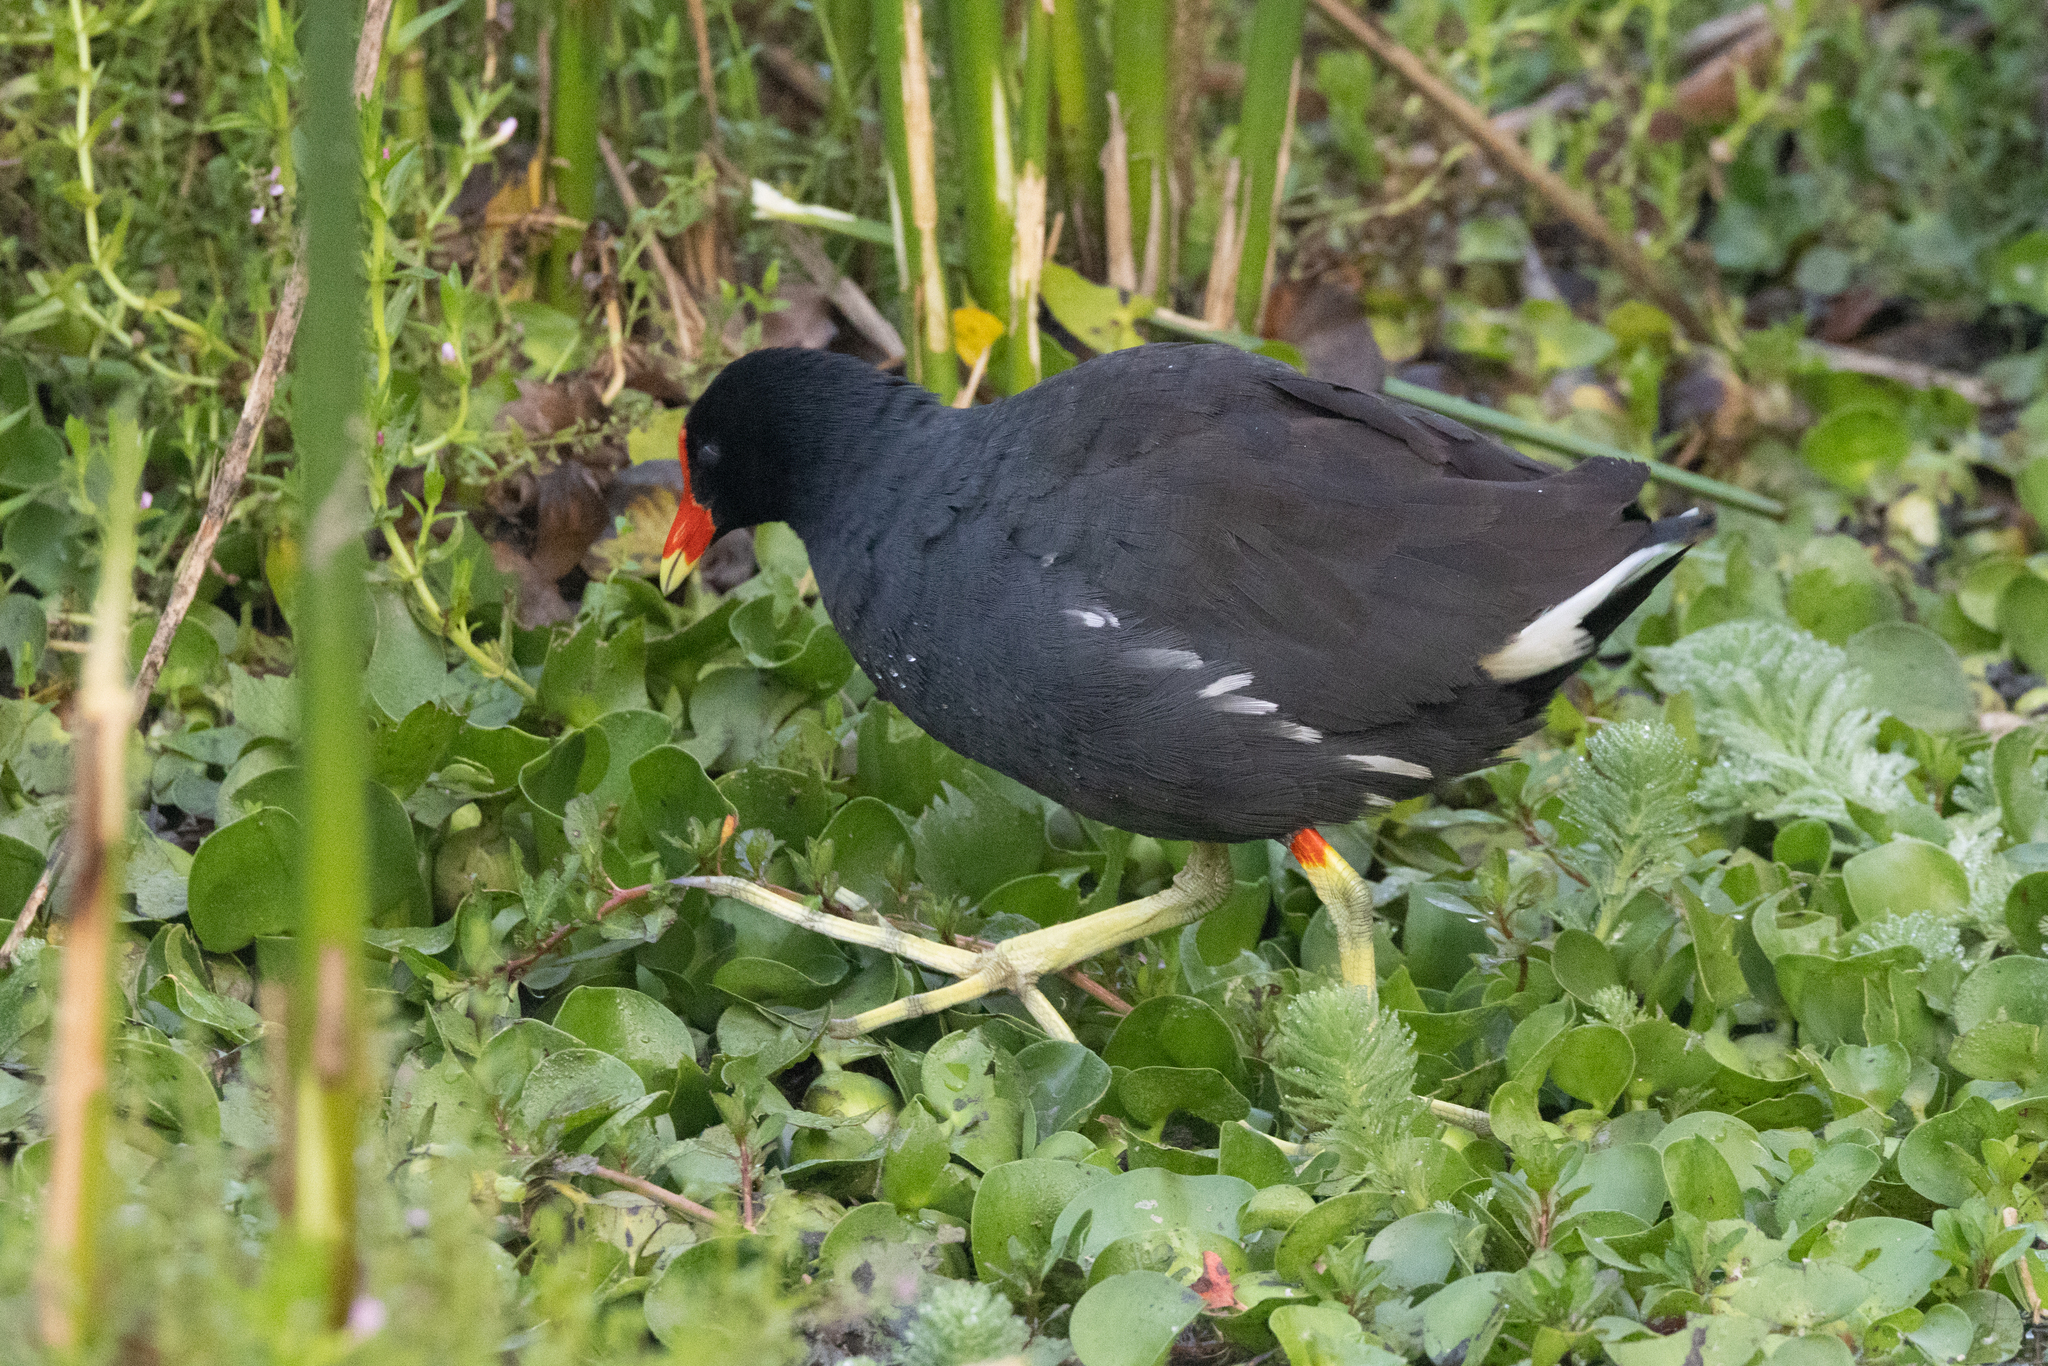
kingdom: Animalia
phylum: Chordata
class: Aves
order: Gruiformes
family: Rallidae
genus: Gallinula
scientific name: Gallinula chloropus
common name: Common moorhen
